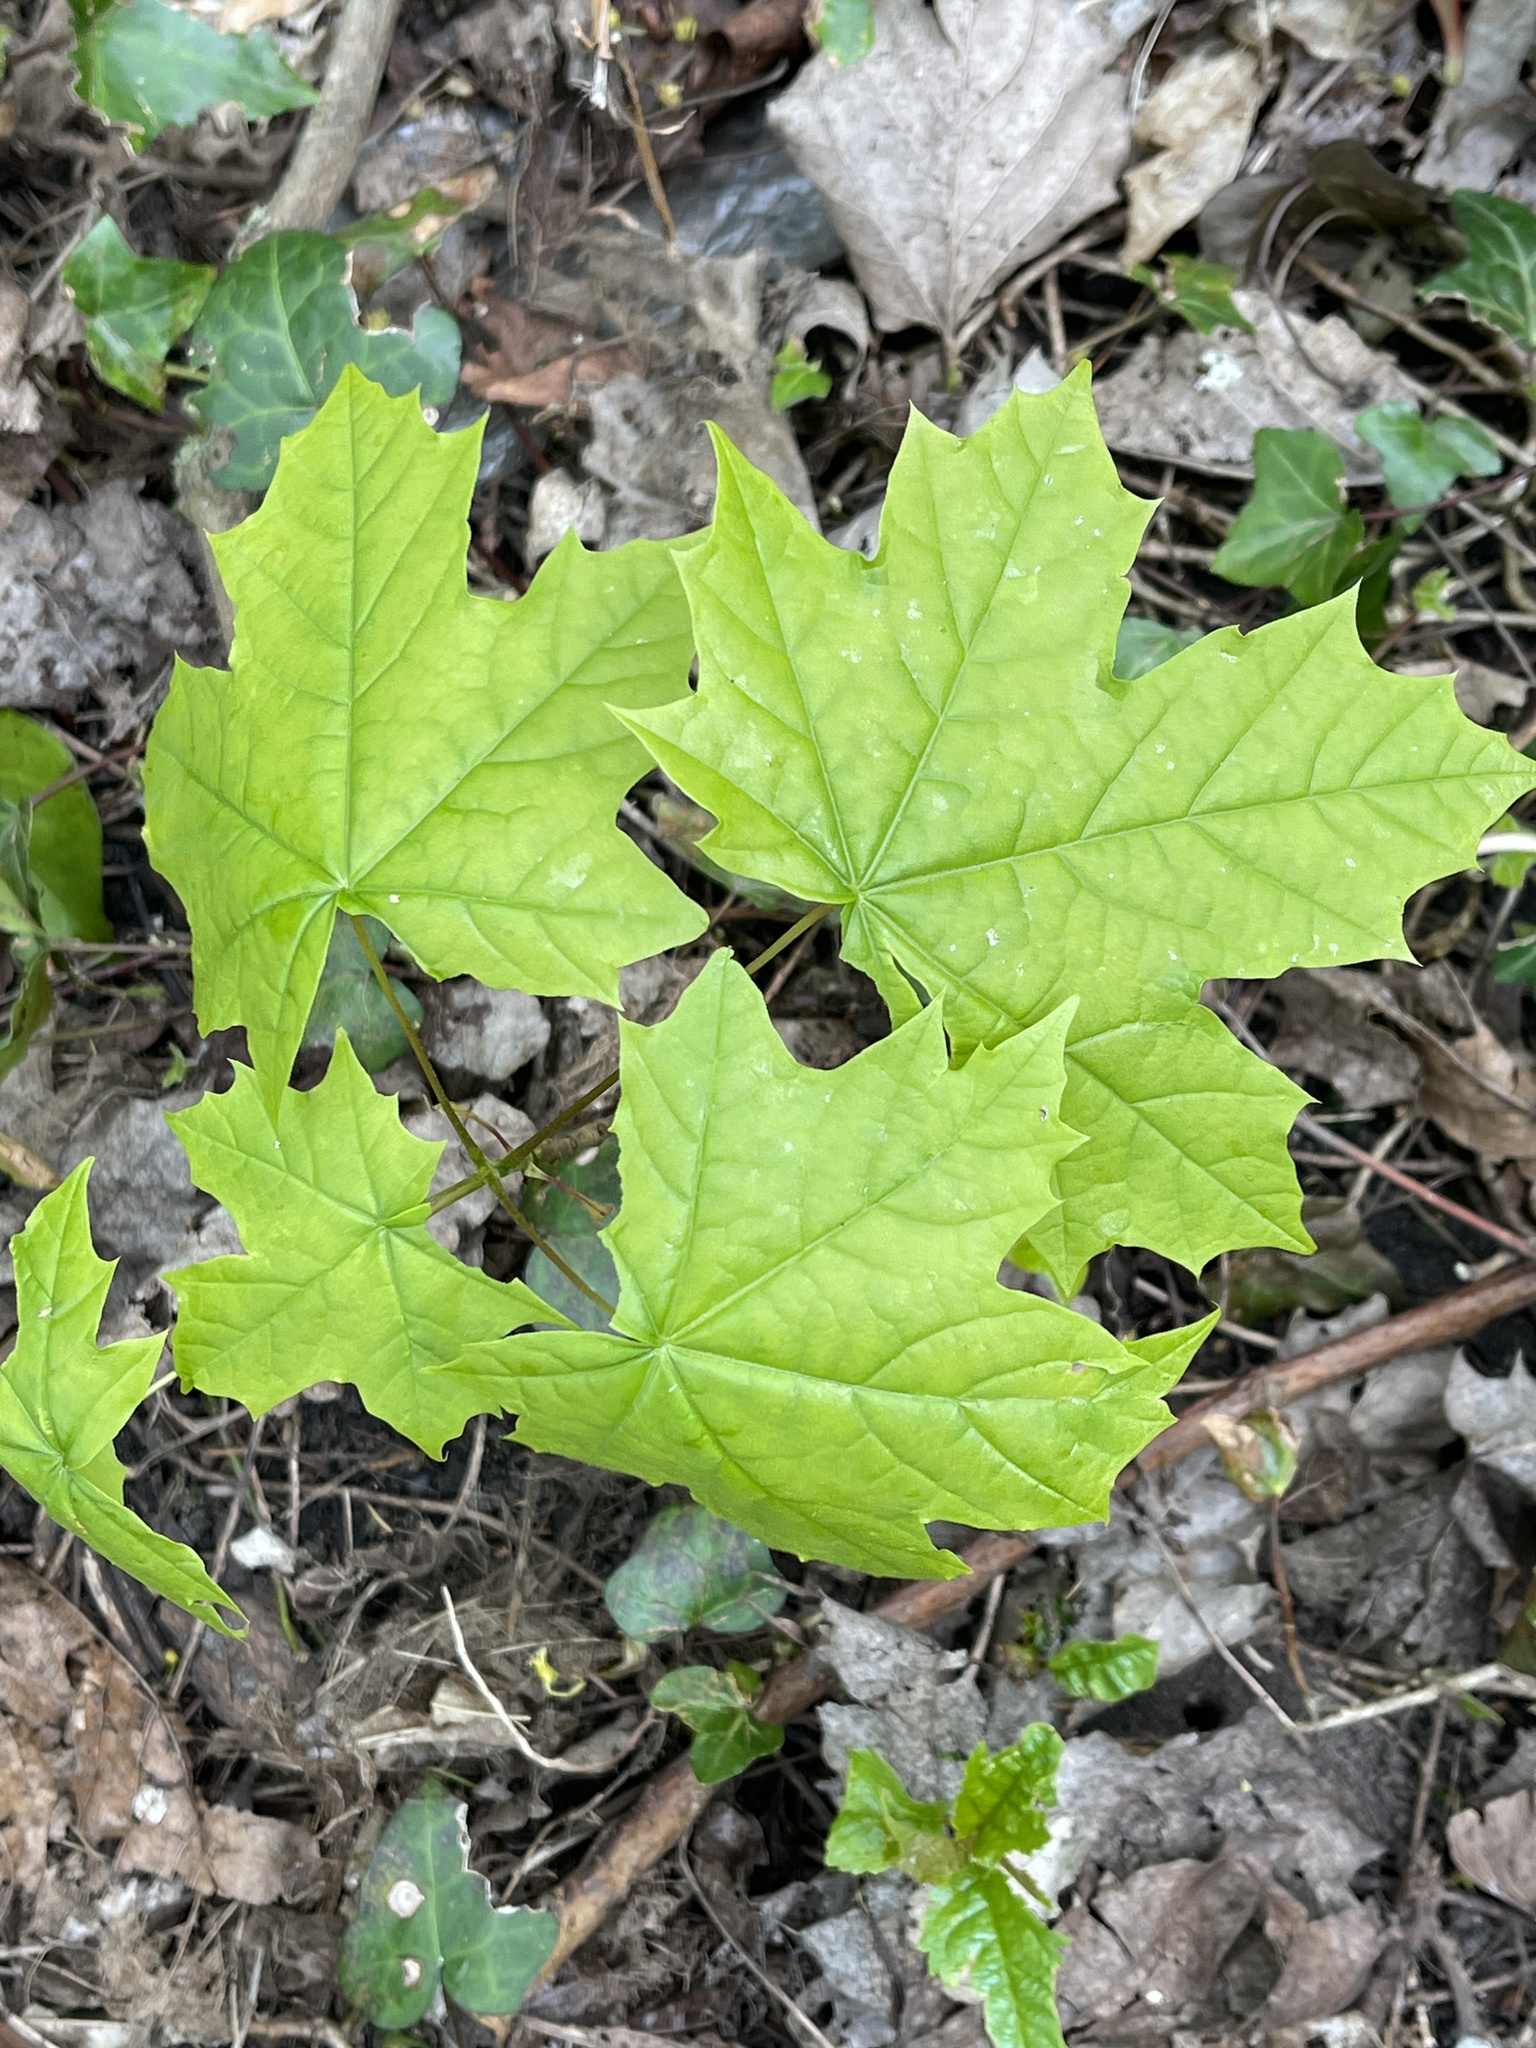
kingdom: Plantae
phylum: Tracheophyta
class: Magnoliopsida
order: Sapindales
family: Sapindaceae
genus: Acer
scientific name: Acer platanoides
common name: Norway maple
